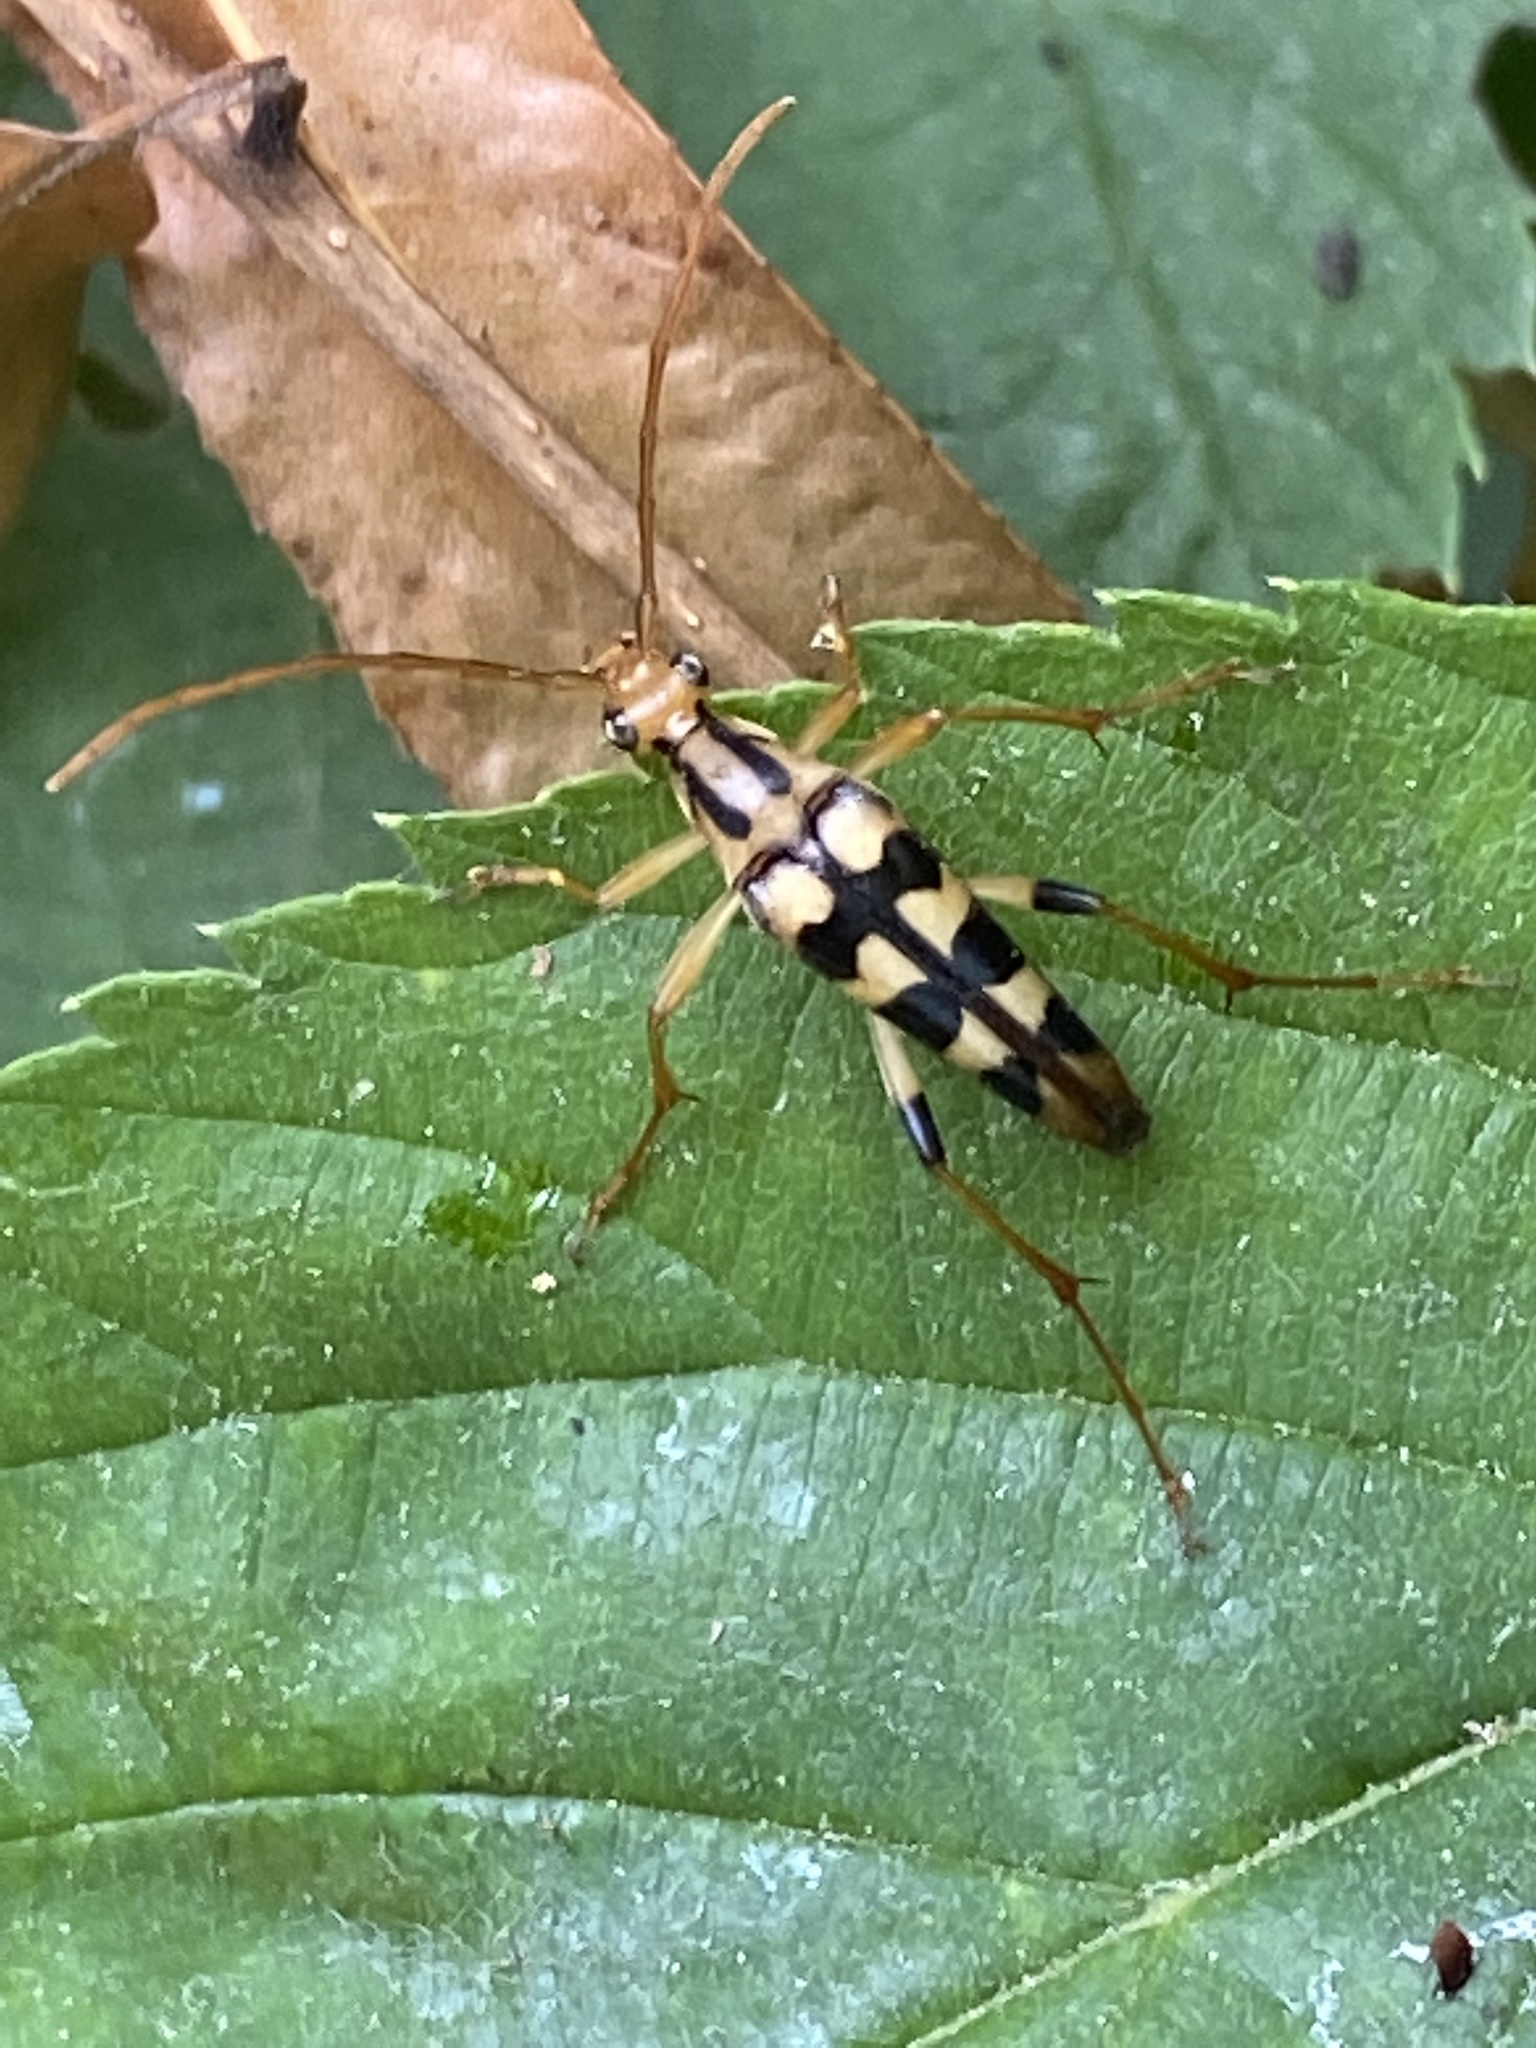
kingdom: Animalia
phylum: Arthropoda
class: Insecta
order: Coleoptera
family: Cerambycidae
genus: Strangalia
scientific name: Strangalia luteicornis
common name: Yellow-horned flower longhorn beetle
